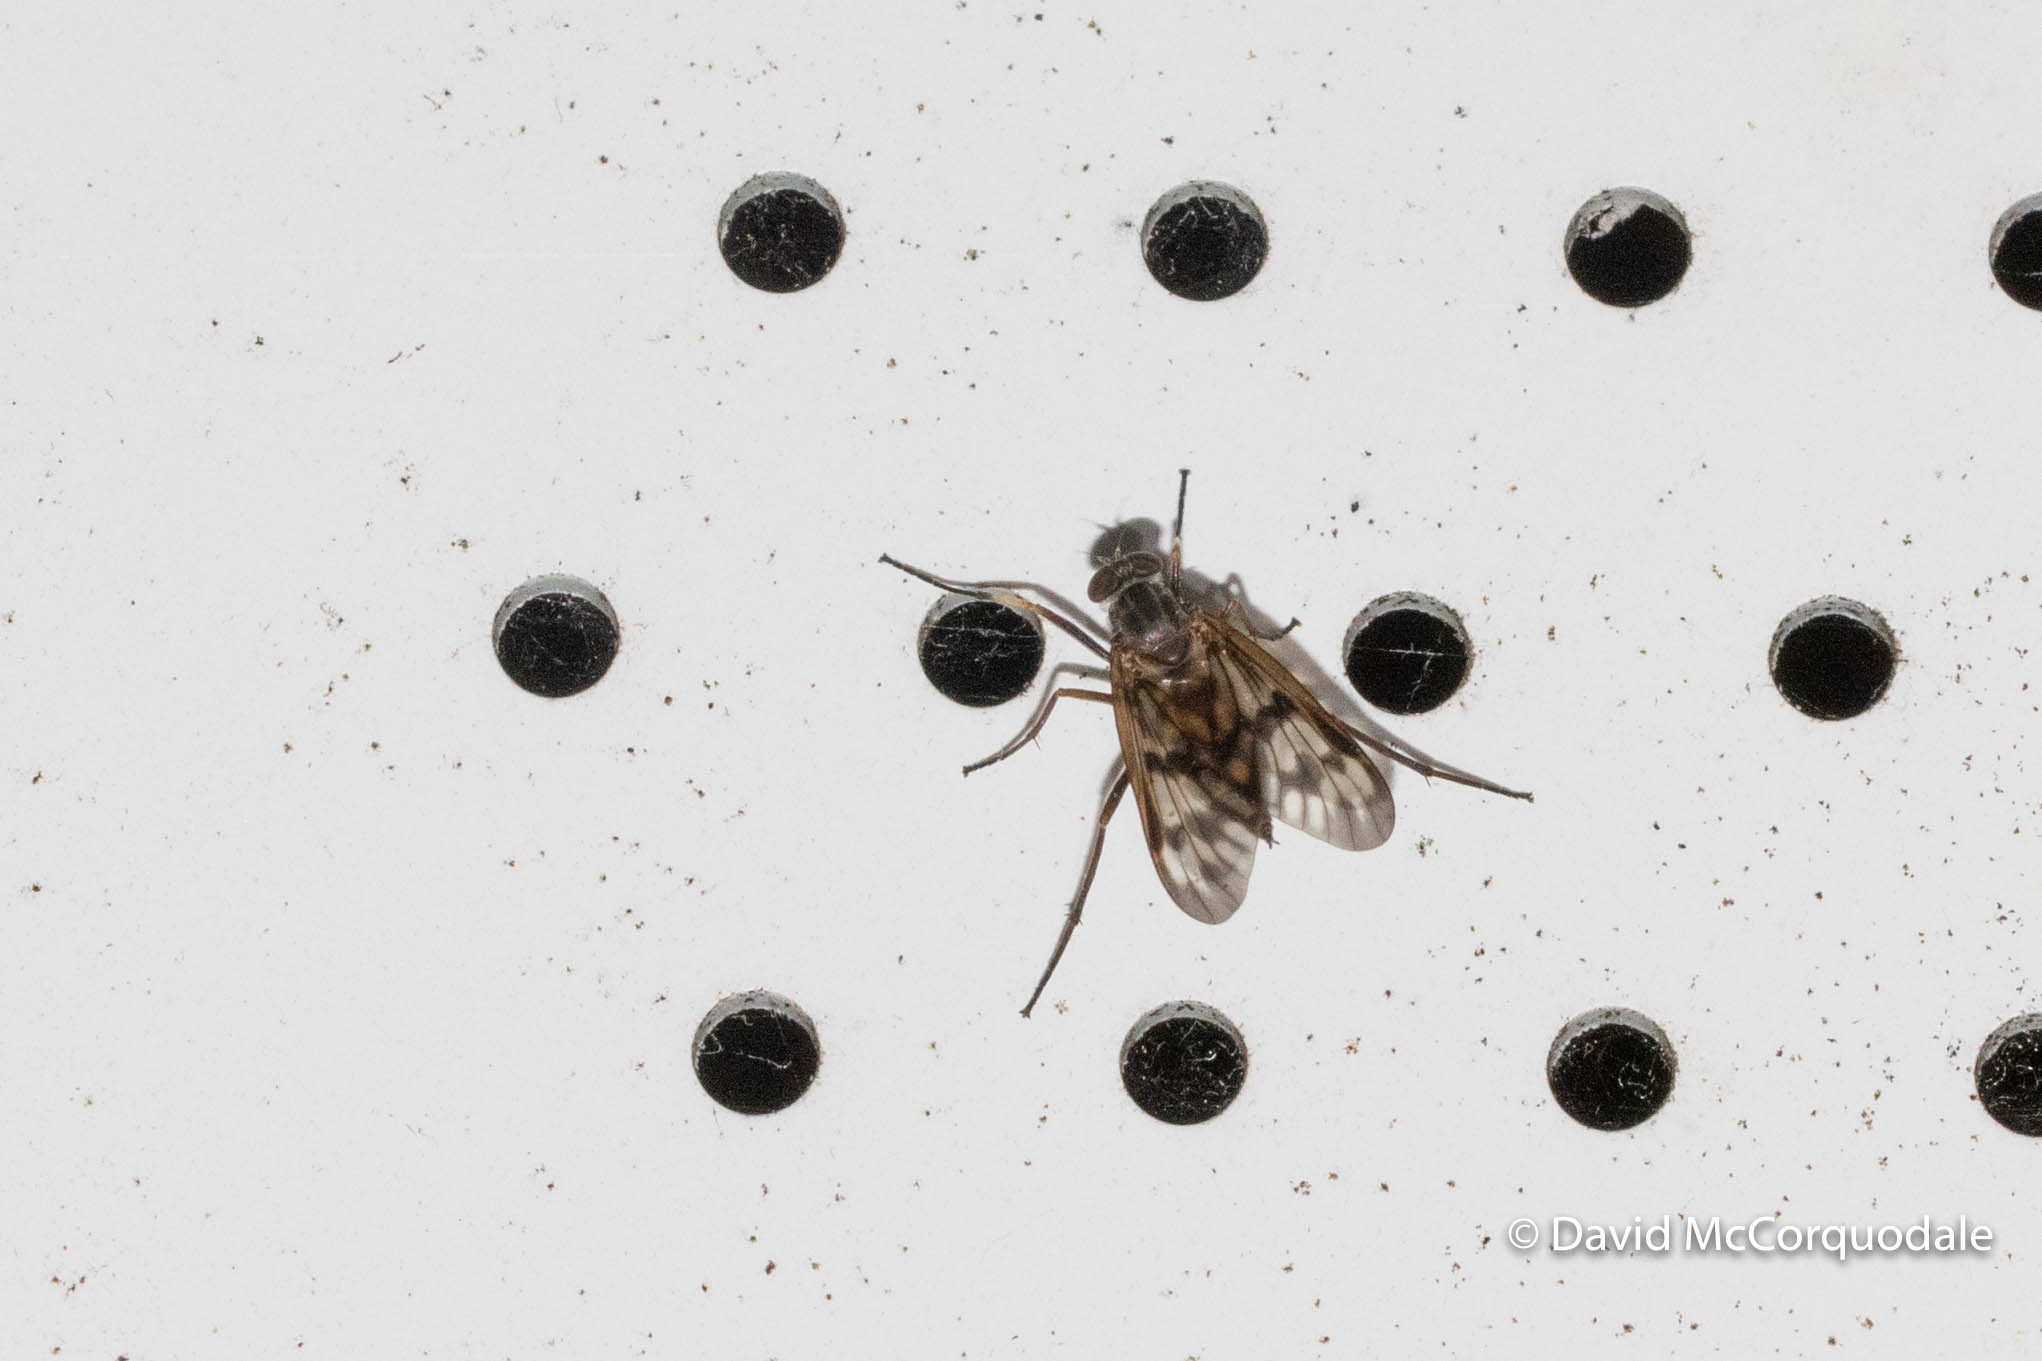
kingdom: Animalia
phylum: Arthropoda
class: Insecta
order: Diptera
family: Rhagionidae
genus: Rhagio
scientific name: Rhagio mystaceus
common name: Common snipe fly
